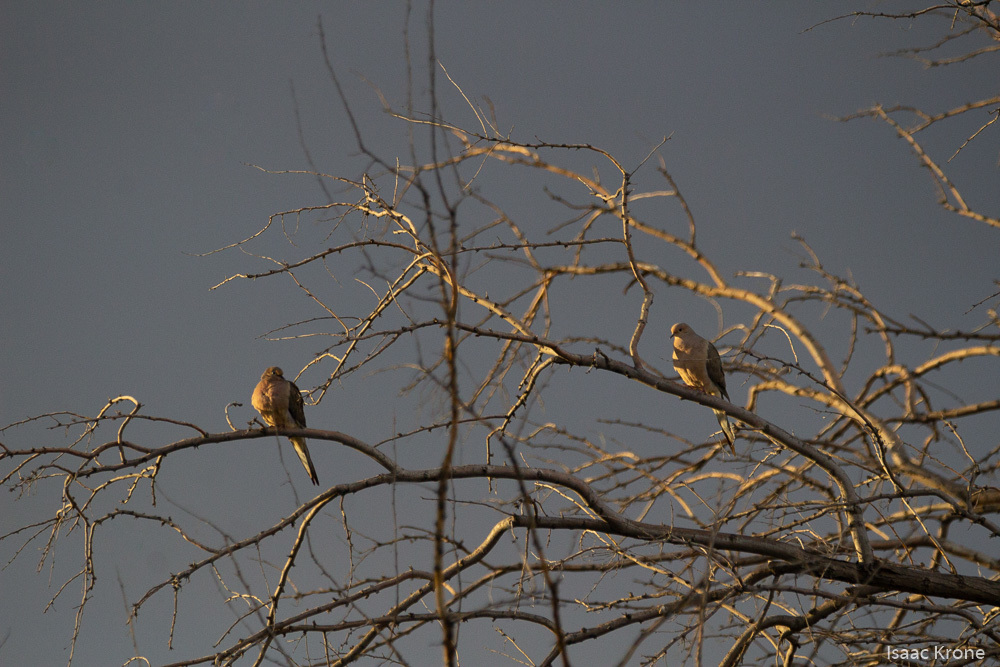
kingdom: Animalia
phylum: Chordata
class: Aves
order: Columbiformes
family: Columbidae
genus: Zenaida
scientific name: Zenaida macroura
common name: Mourning dove
